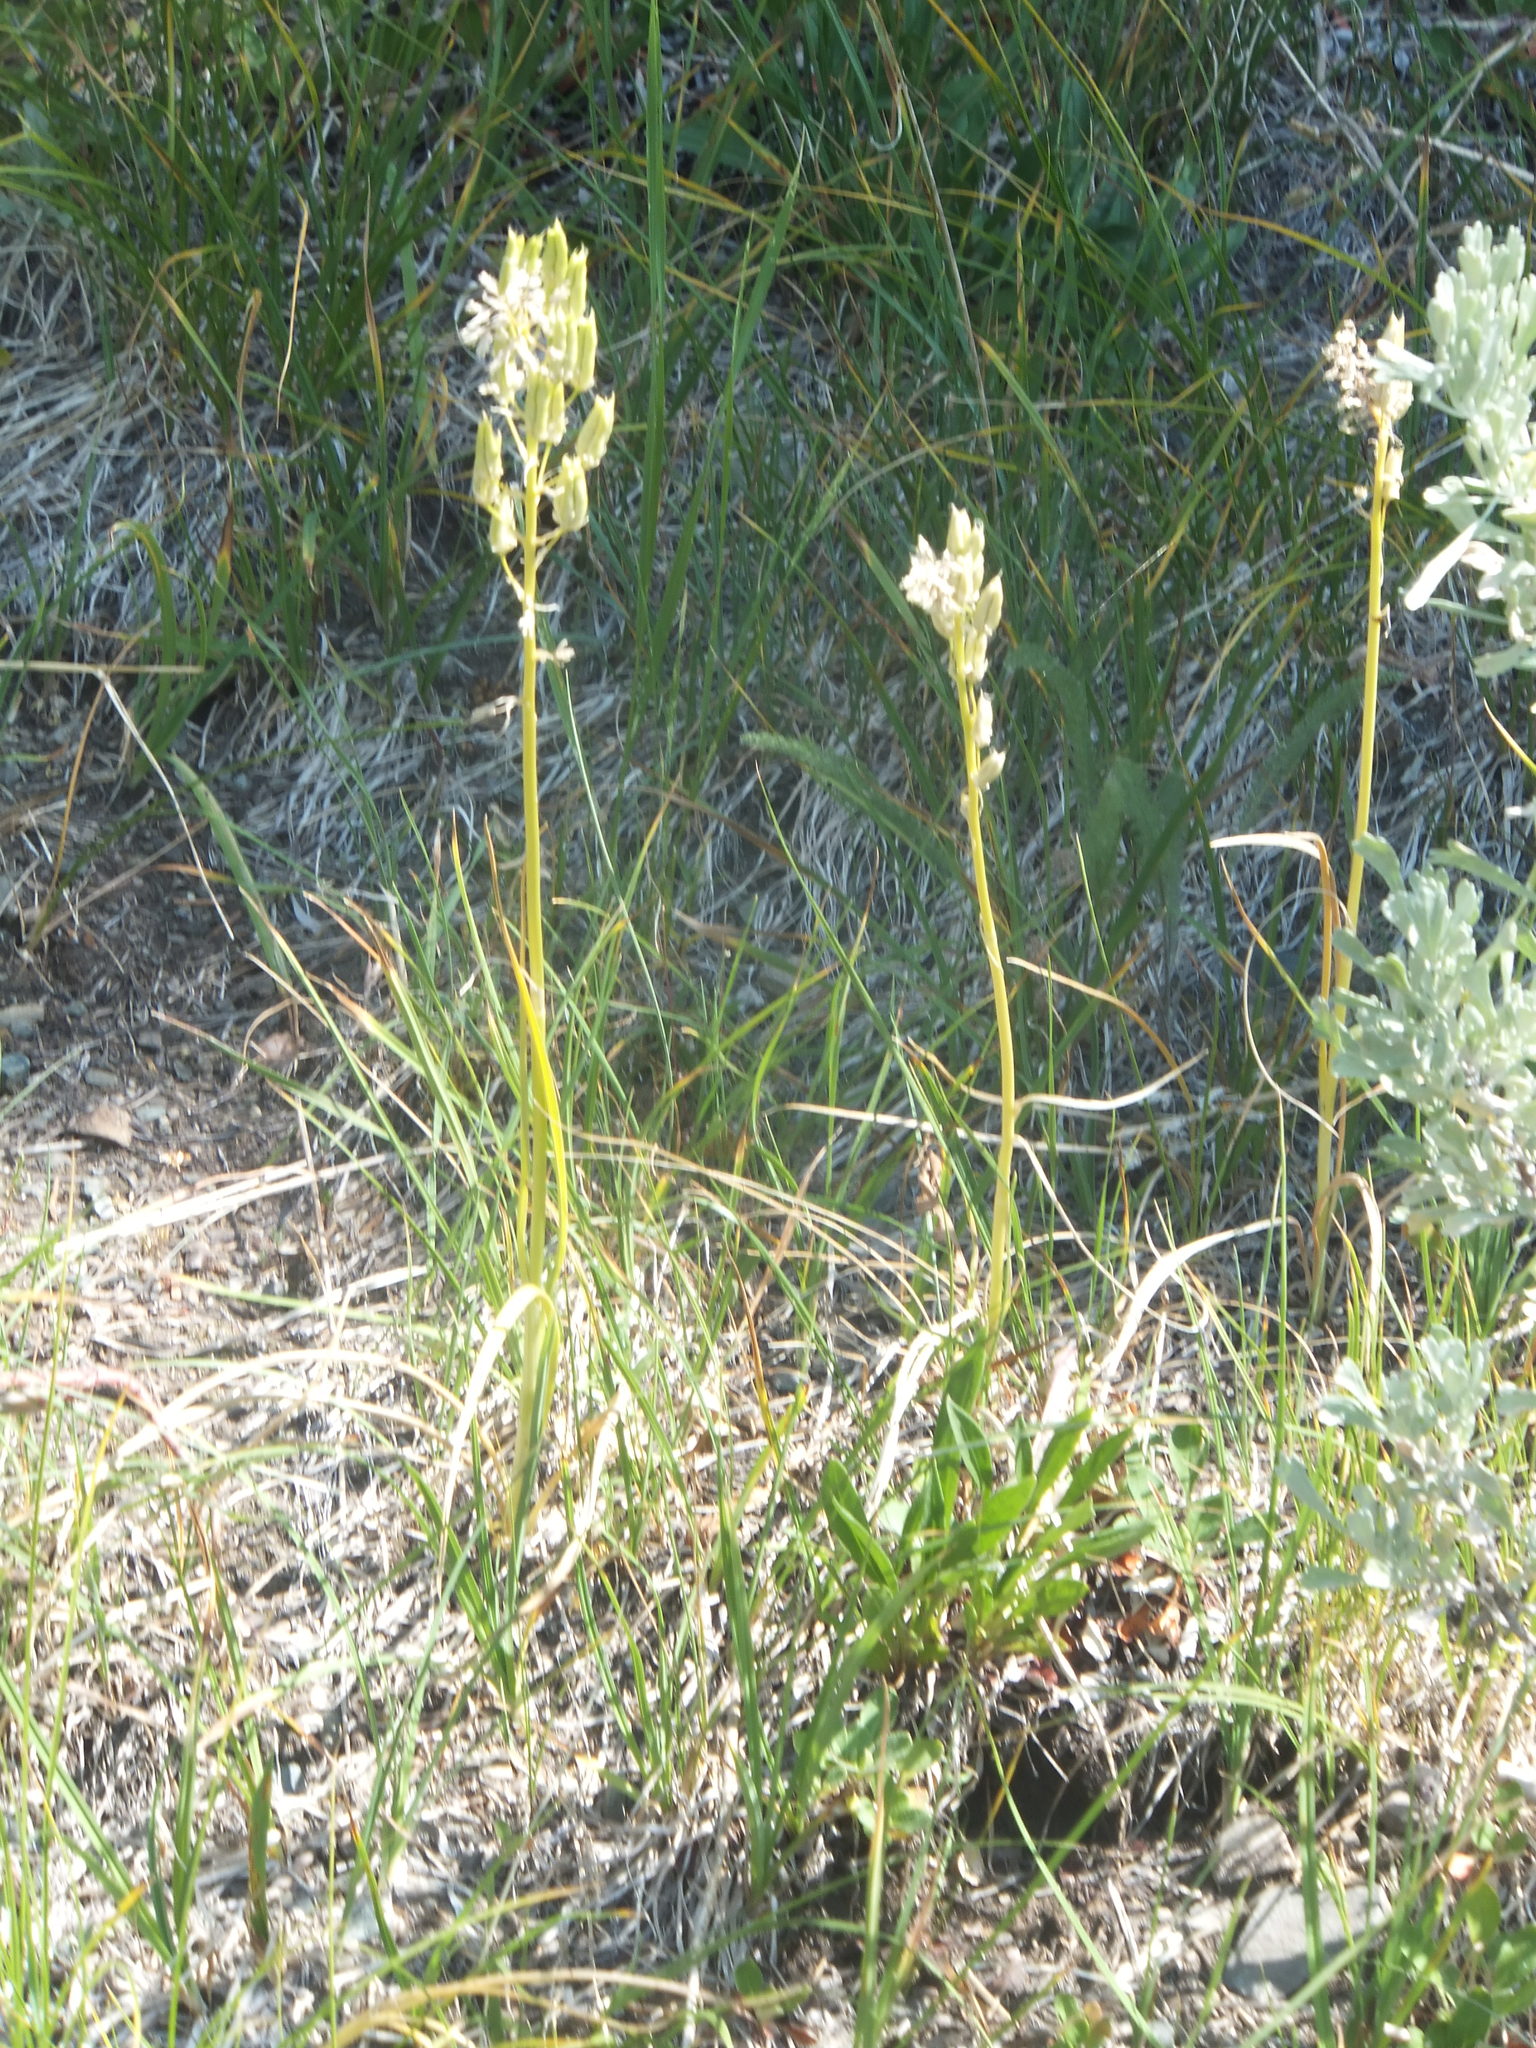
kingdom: Plantae
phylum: Tracheophyta
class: Liliopsida
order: Liliales
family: Melanthiaceae
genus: Toxicoscordion
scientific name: Toxicoscordion venenosum
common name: Meadow death camas
